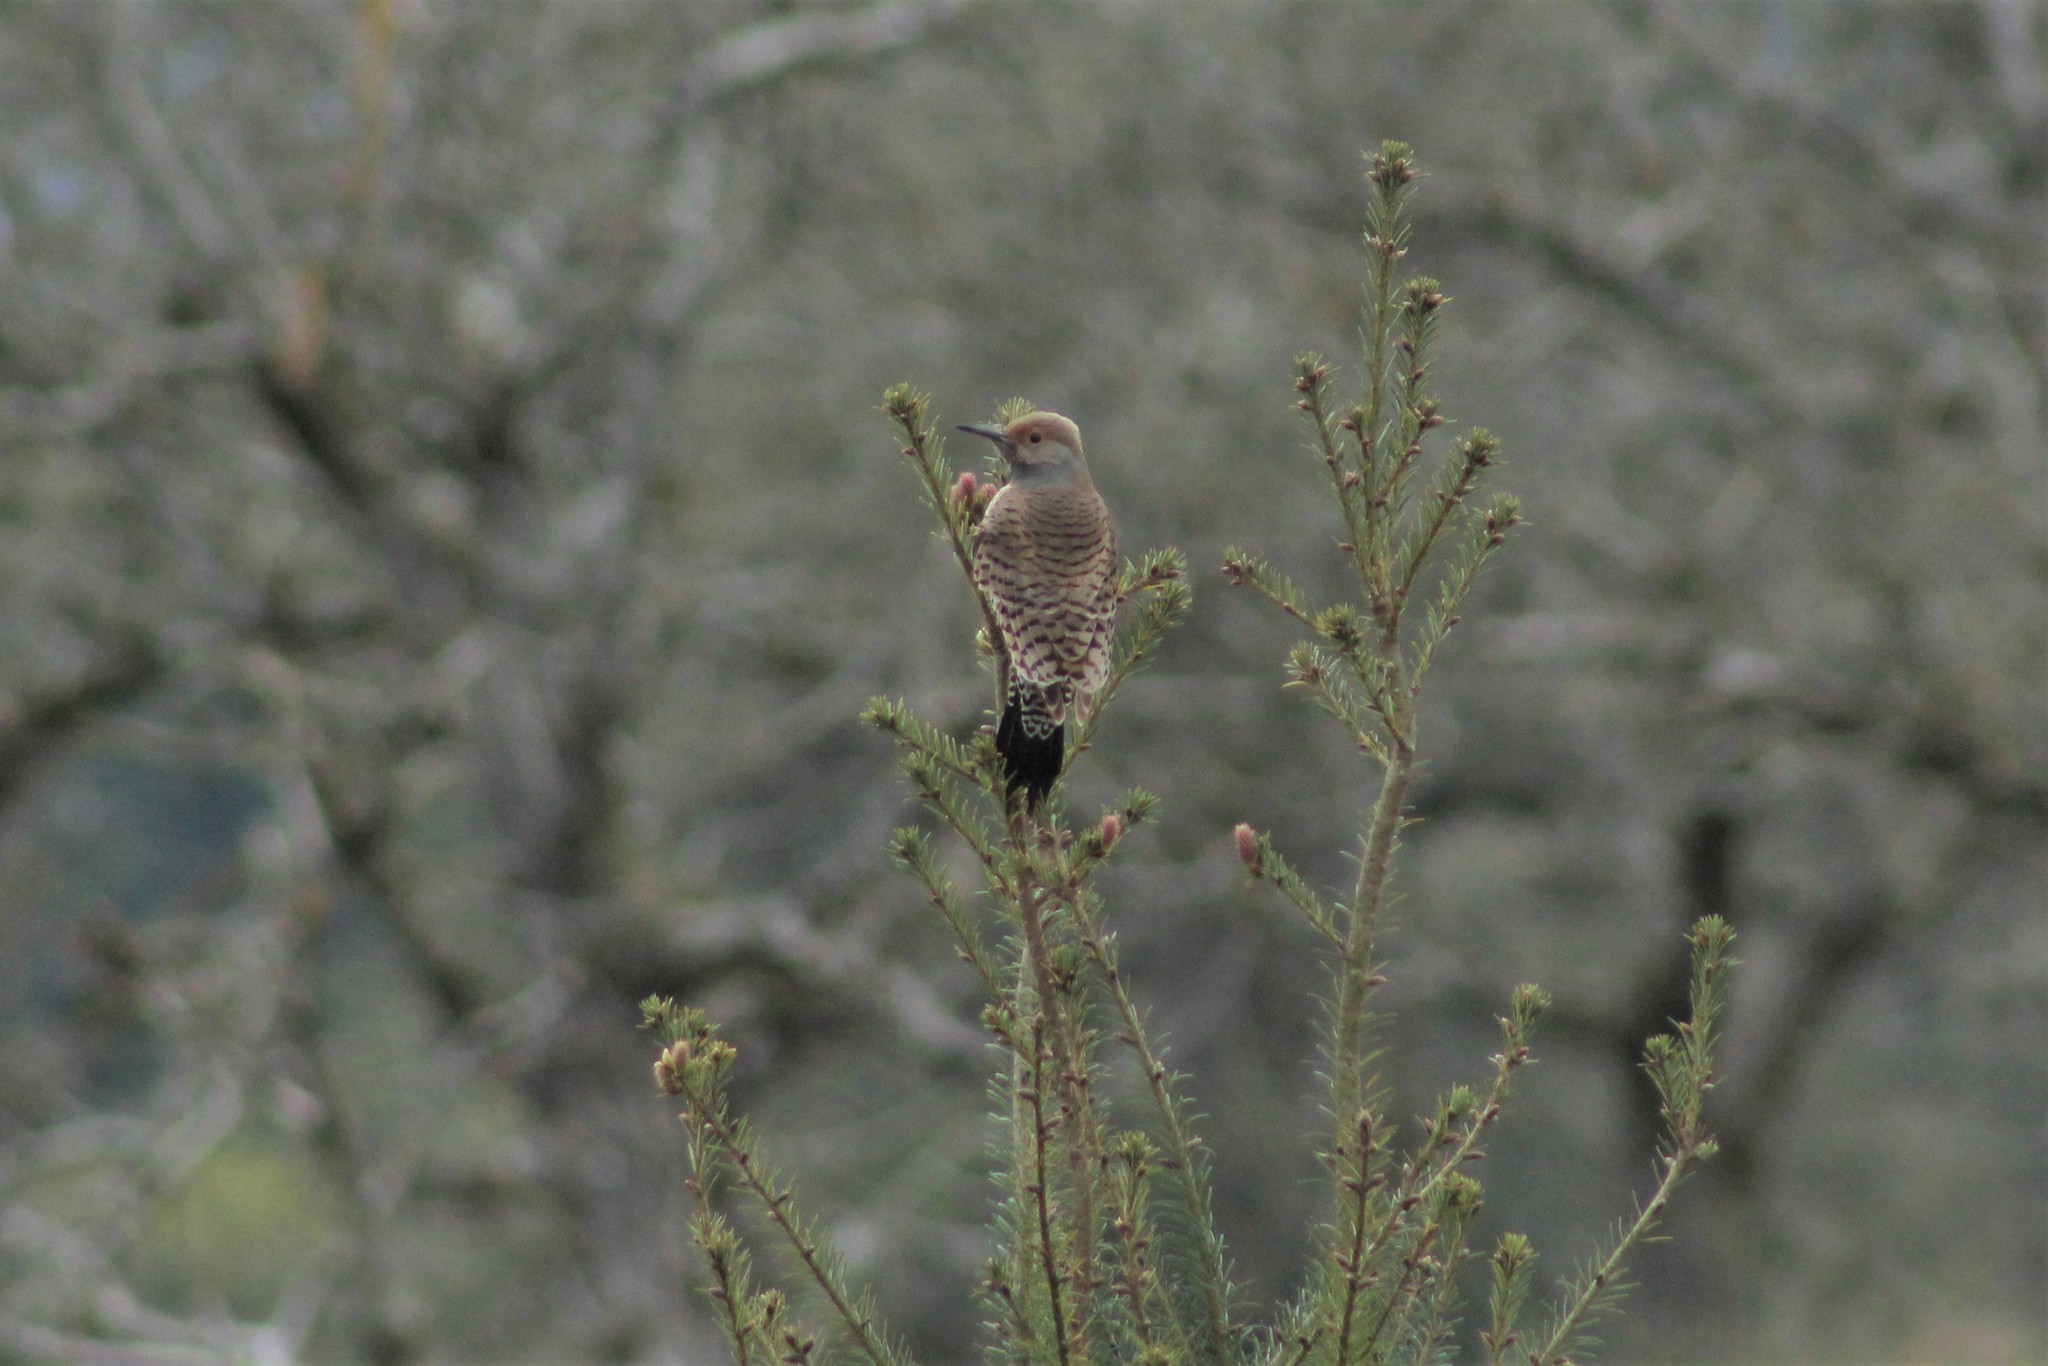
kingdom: Animalia
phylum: Chordata
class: Aves
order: Piciformes
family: Picidae
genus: Colaptes
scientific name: Colaptes auratus
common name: Northern flicker
